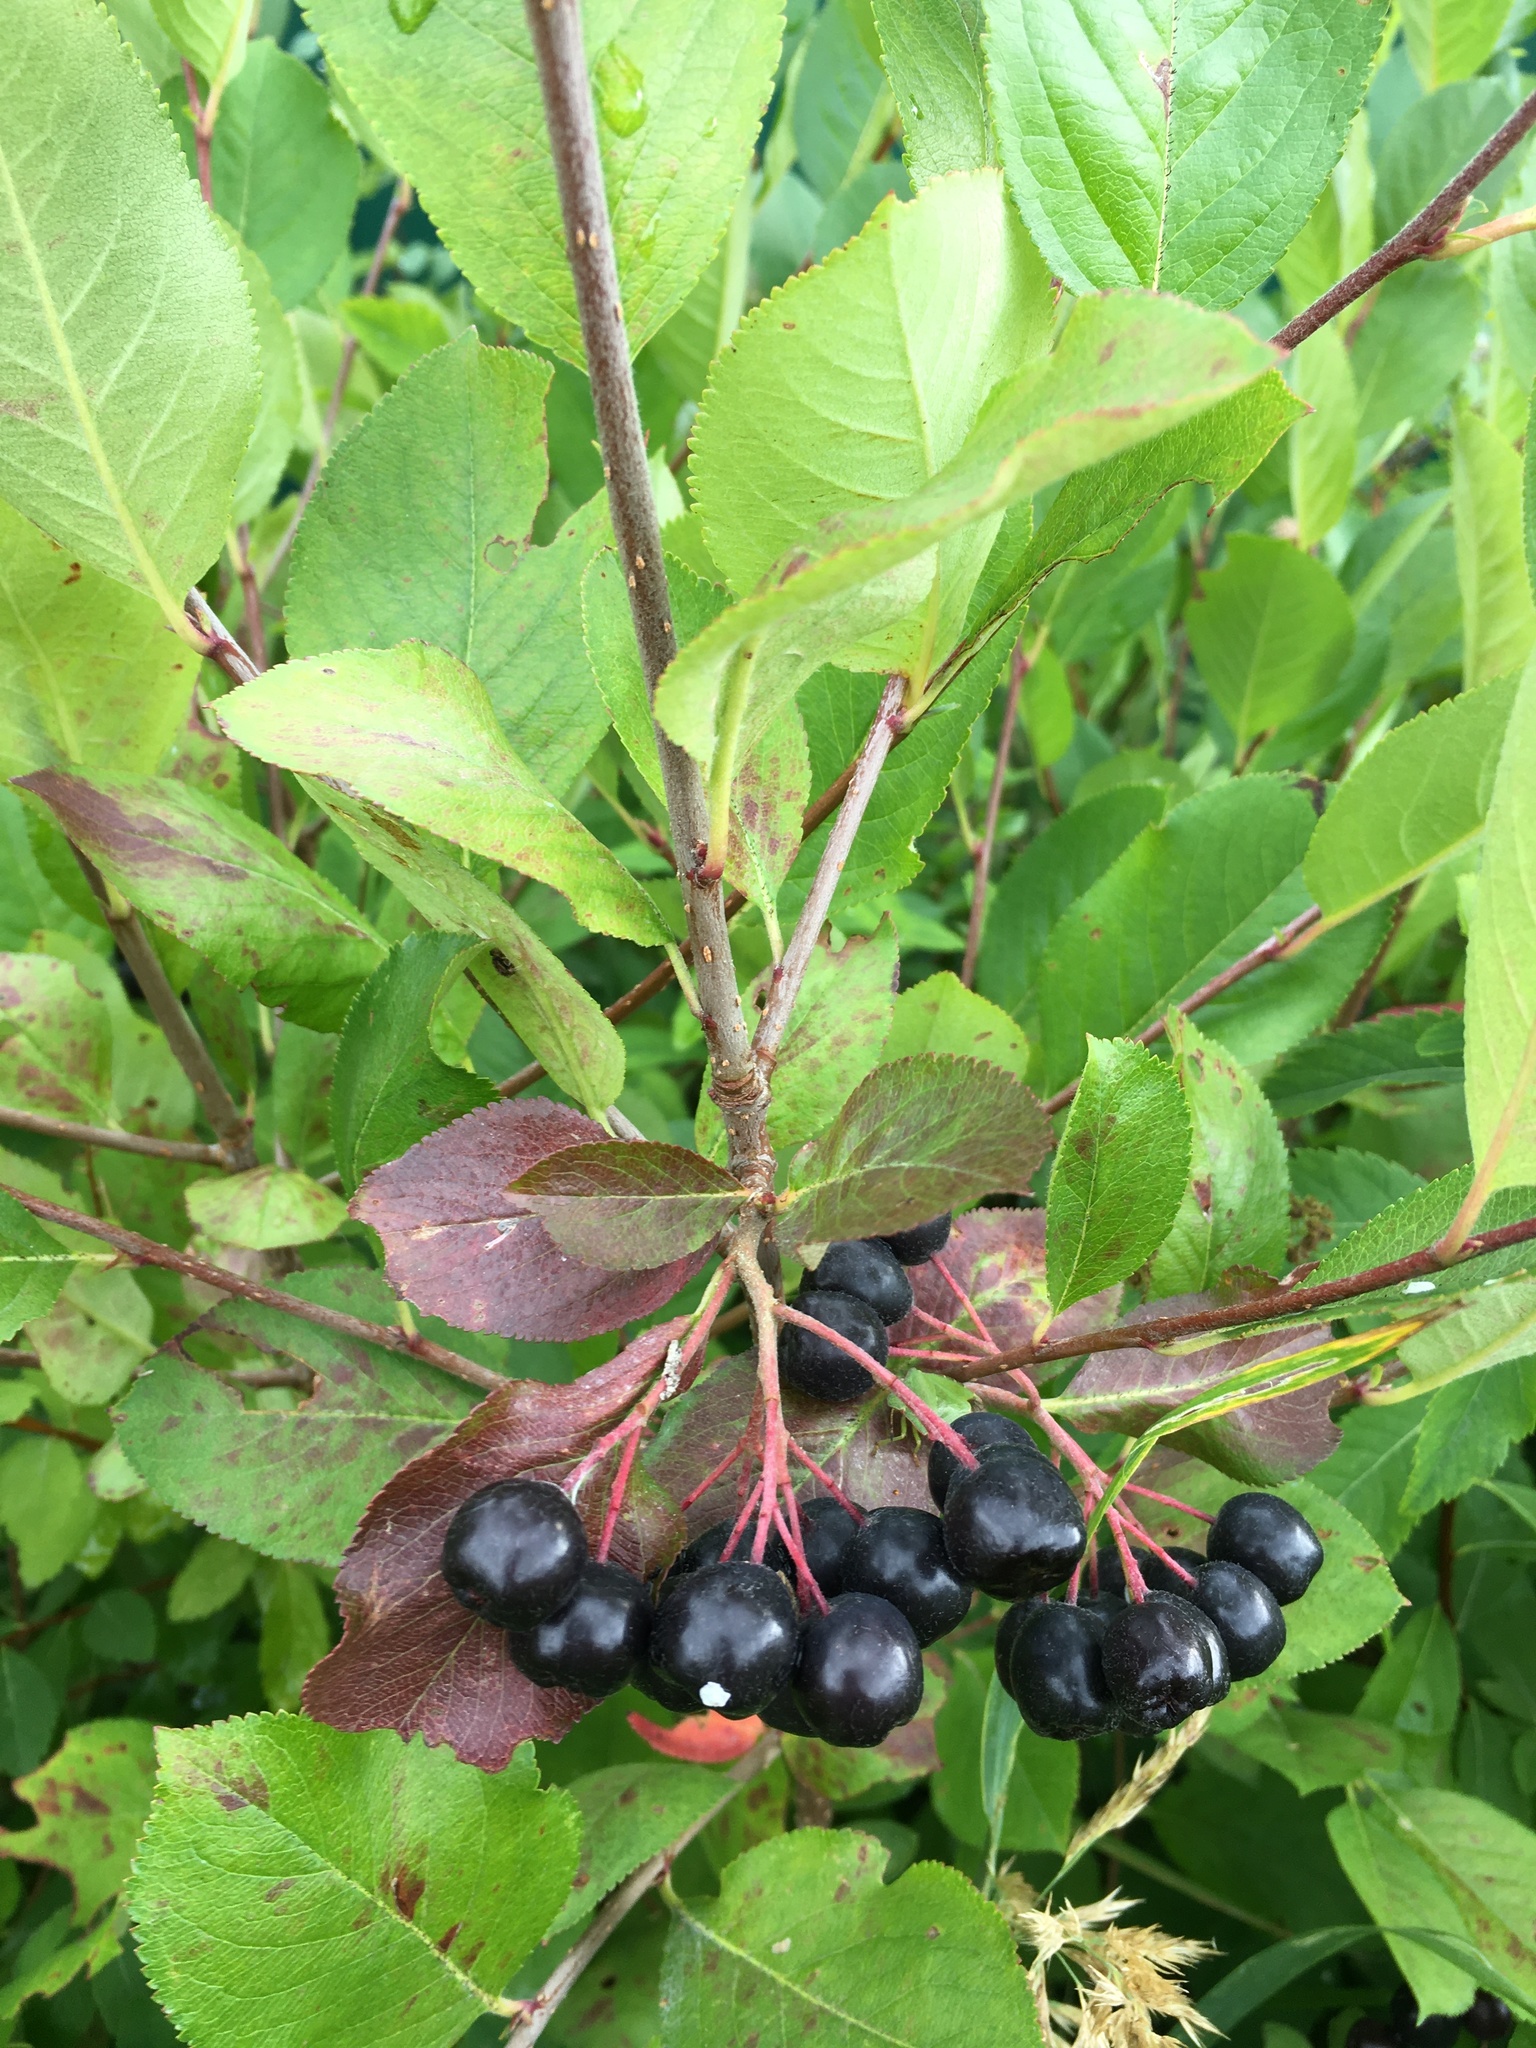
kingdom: Plantae
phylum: Tracheophyta
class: Magnoliopsida
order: Rosales
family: Rosaceae
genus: Sorbaronia
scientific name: Sorbaronia arsenii
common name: Arsène's mountain-ash
